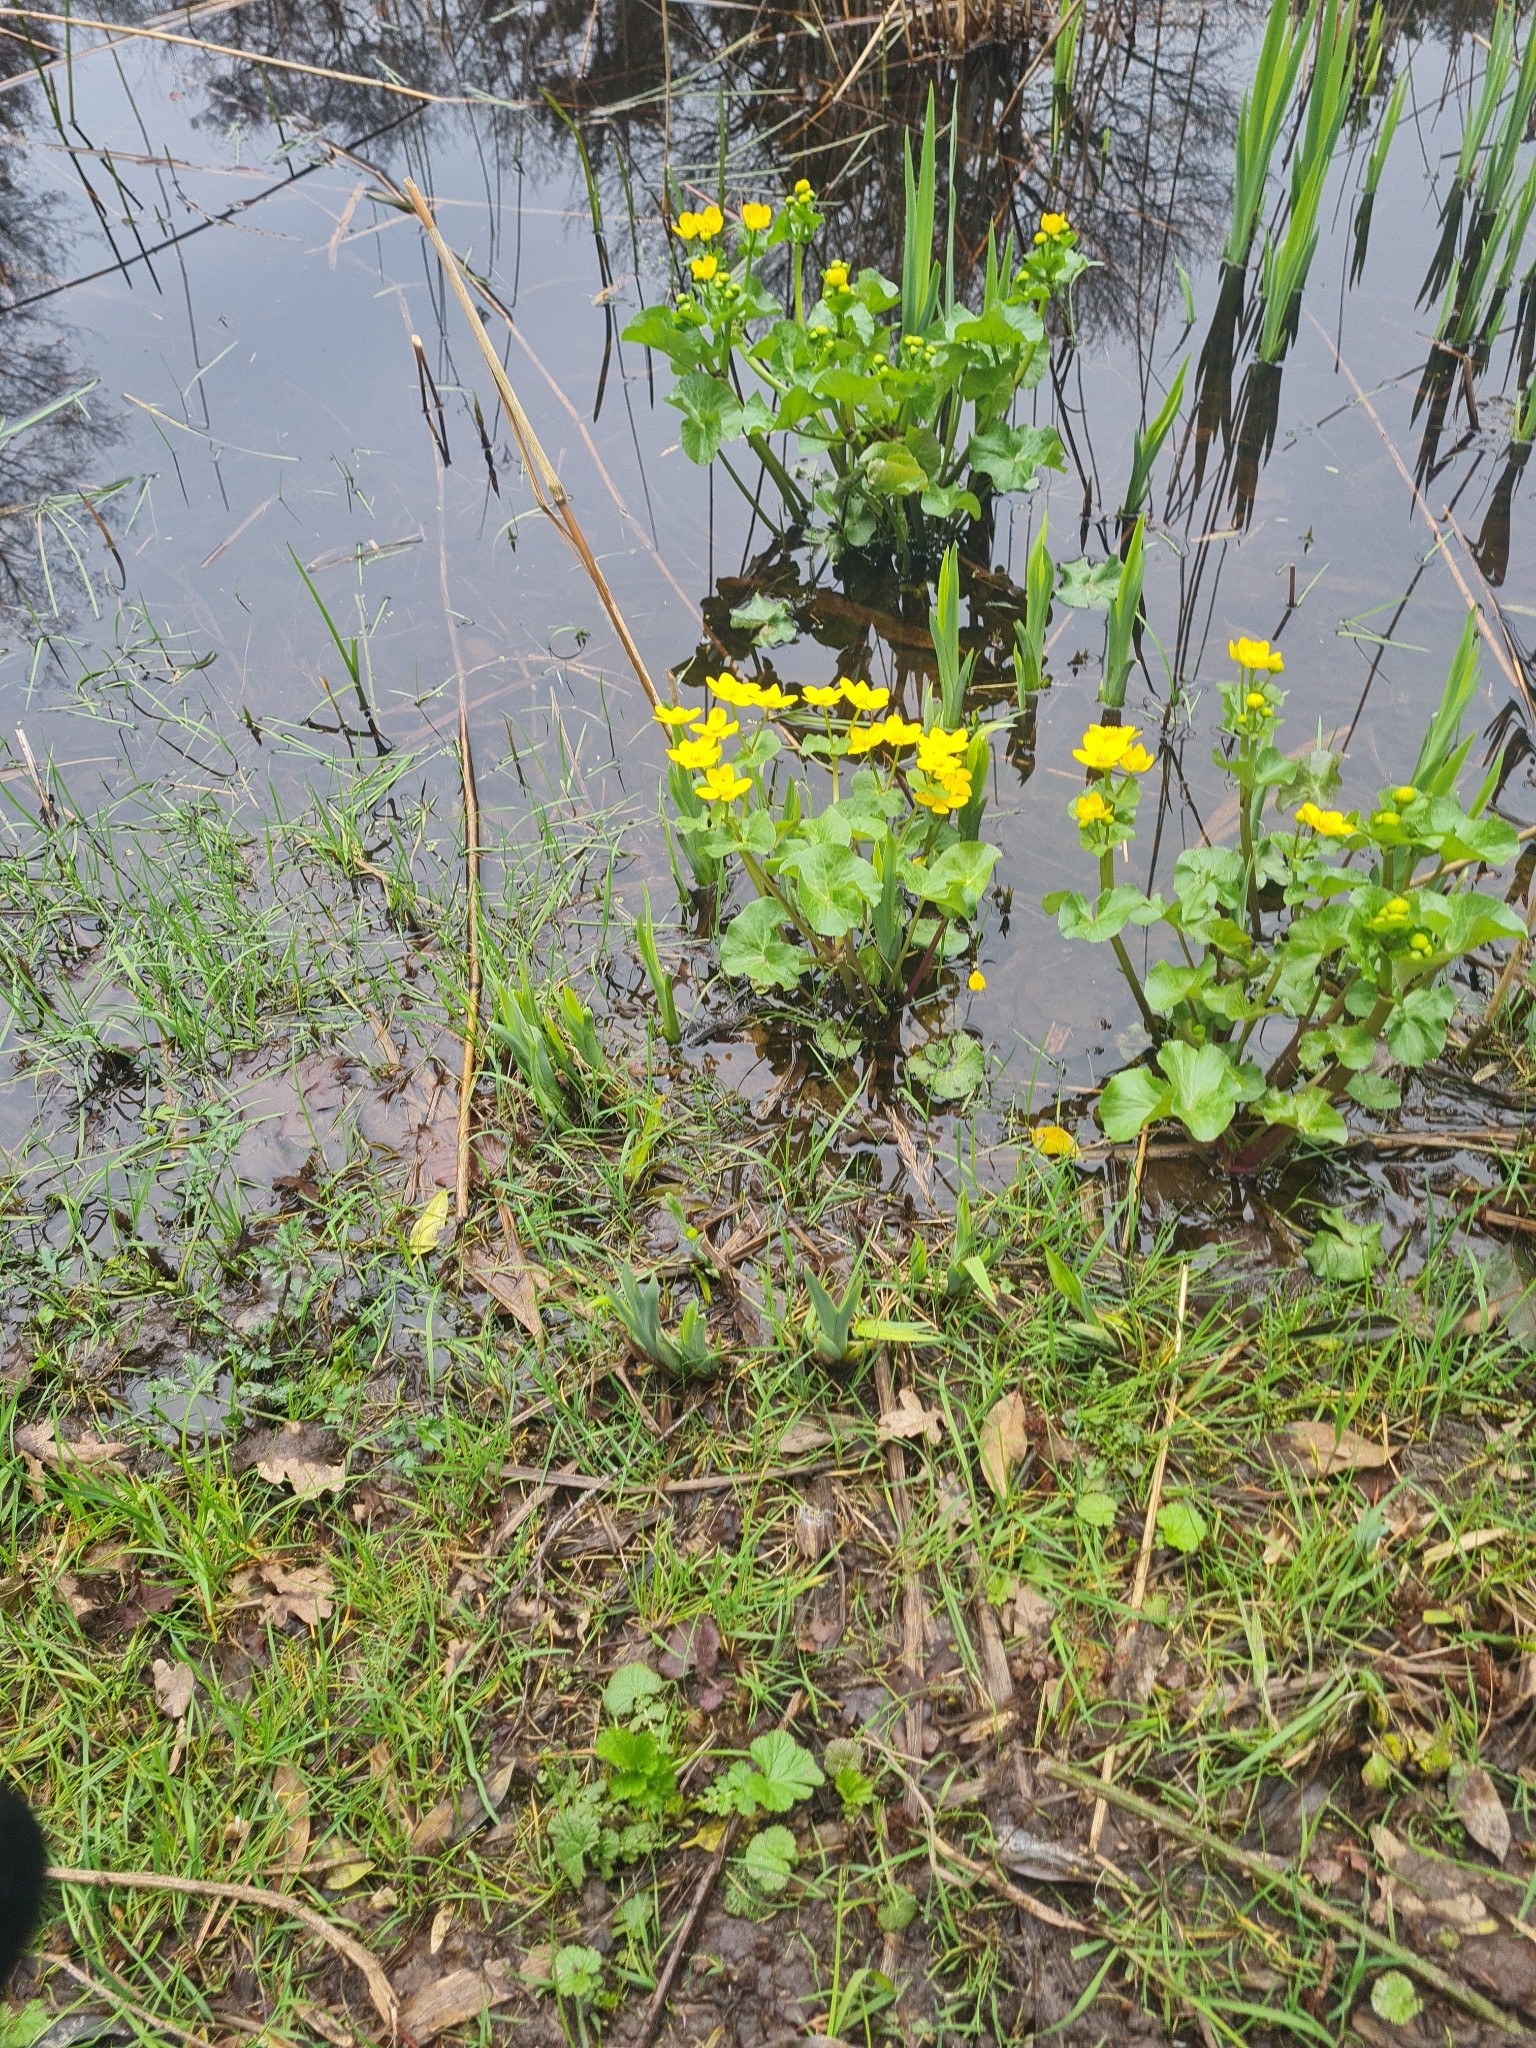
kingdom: Plantae
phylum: Tracheophyta
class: Magnoliopsida
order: Ranunculales
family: Ranunculaceae
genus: Caltha
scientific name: Caltha palustris
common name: Marsh marigold
